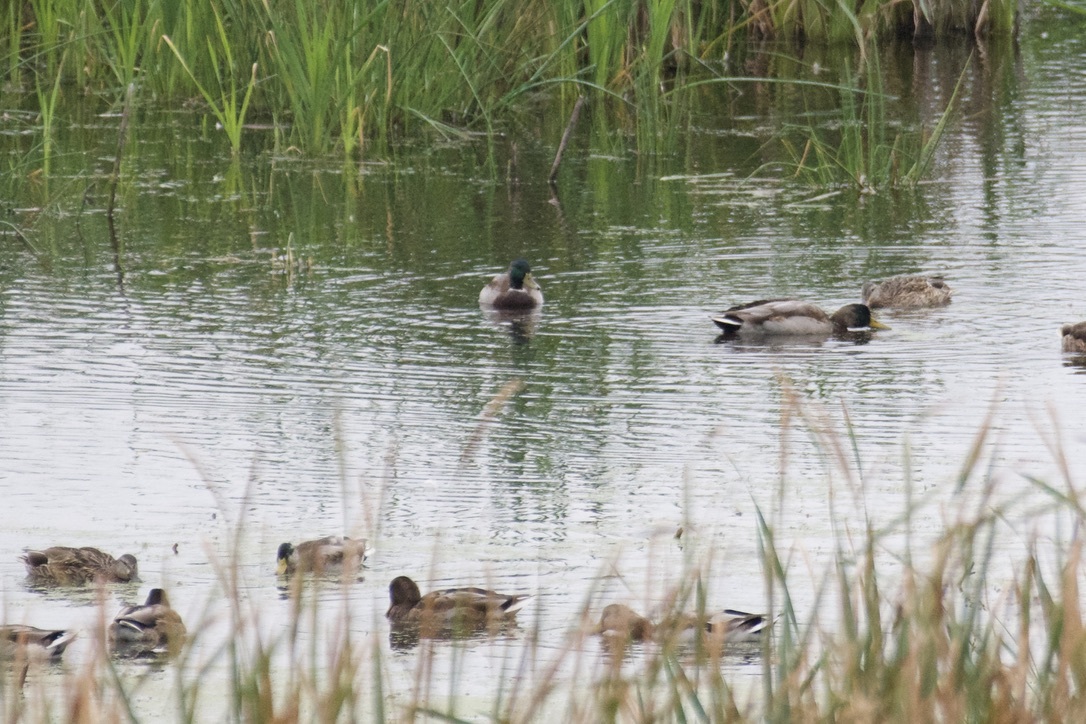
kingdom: Animalia
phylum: Chordata
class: Aves
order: Anseriformes
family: Anatidae
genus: Anas
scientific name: Anas platyrhynchos
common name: Mallard
